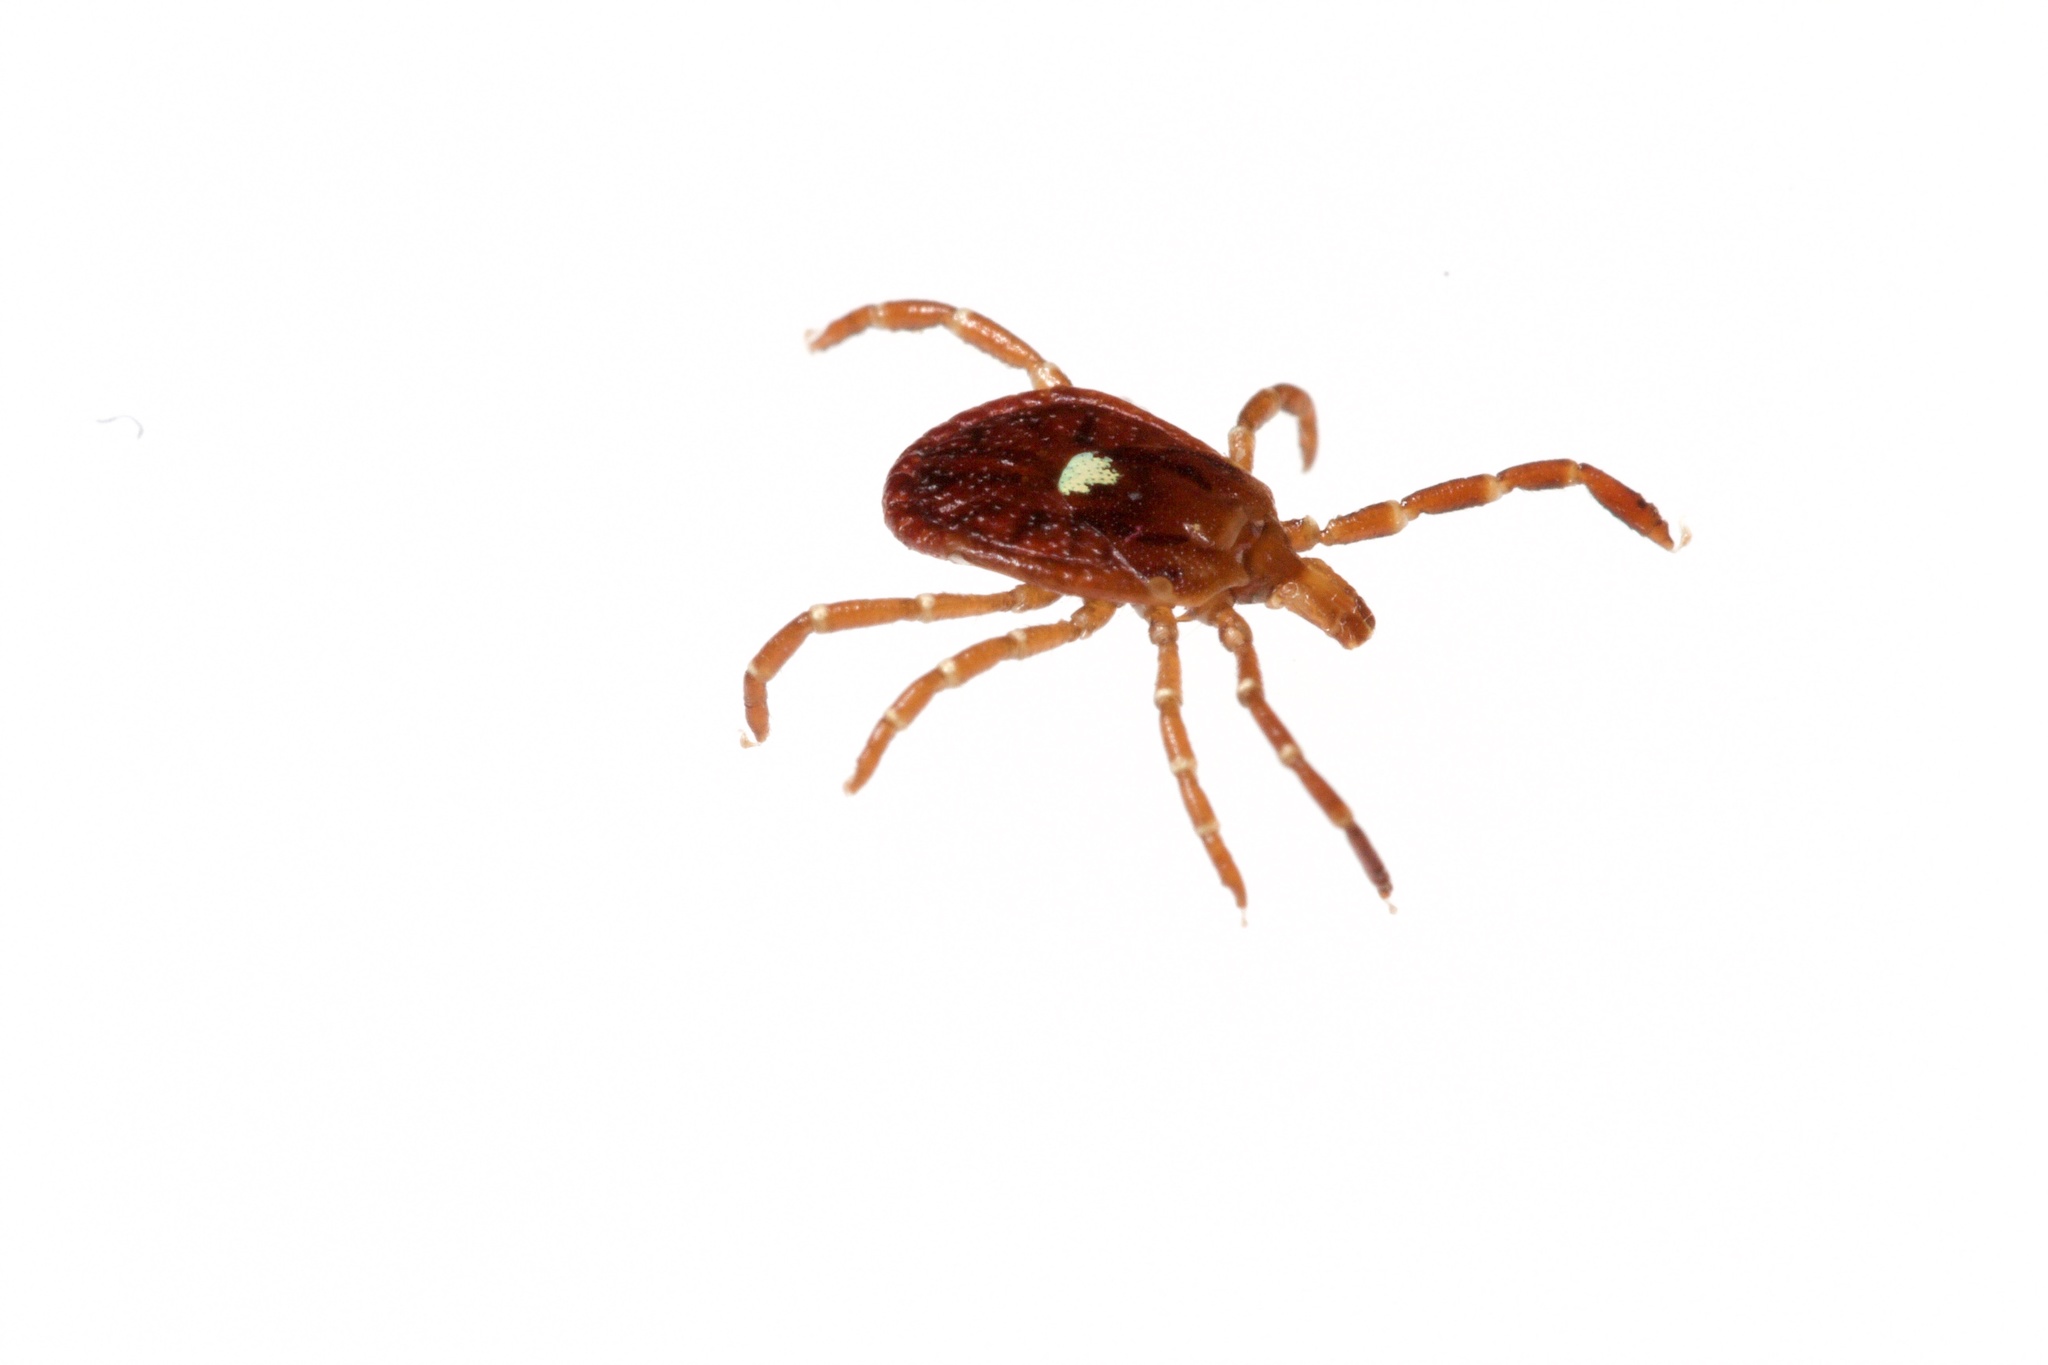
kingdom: Animalia
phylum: Arthropoda
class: Arachnida
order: Ixodida
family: Ixodidae
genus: Amblyomma
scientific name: Amblyomma americanum
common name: Lone star tick
